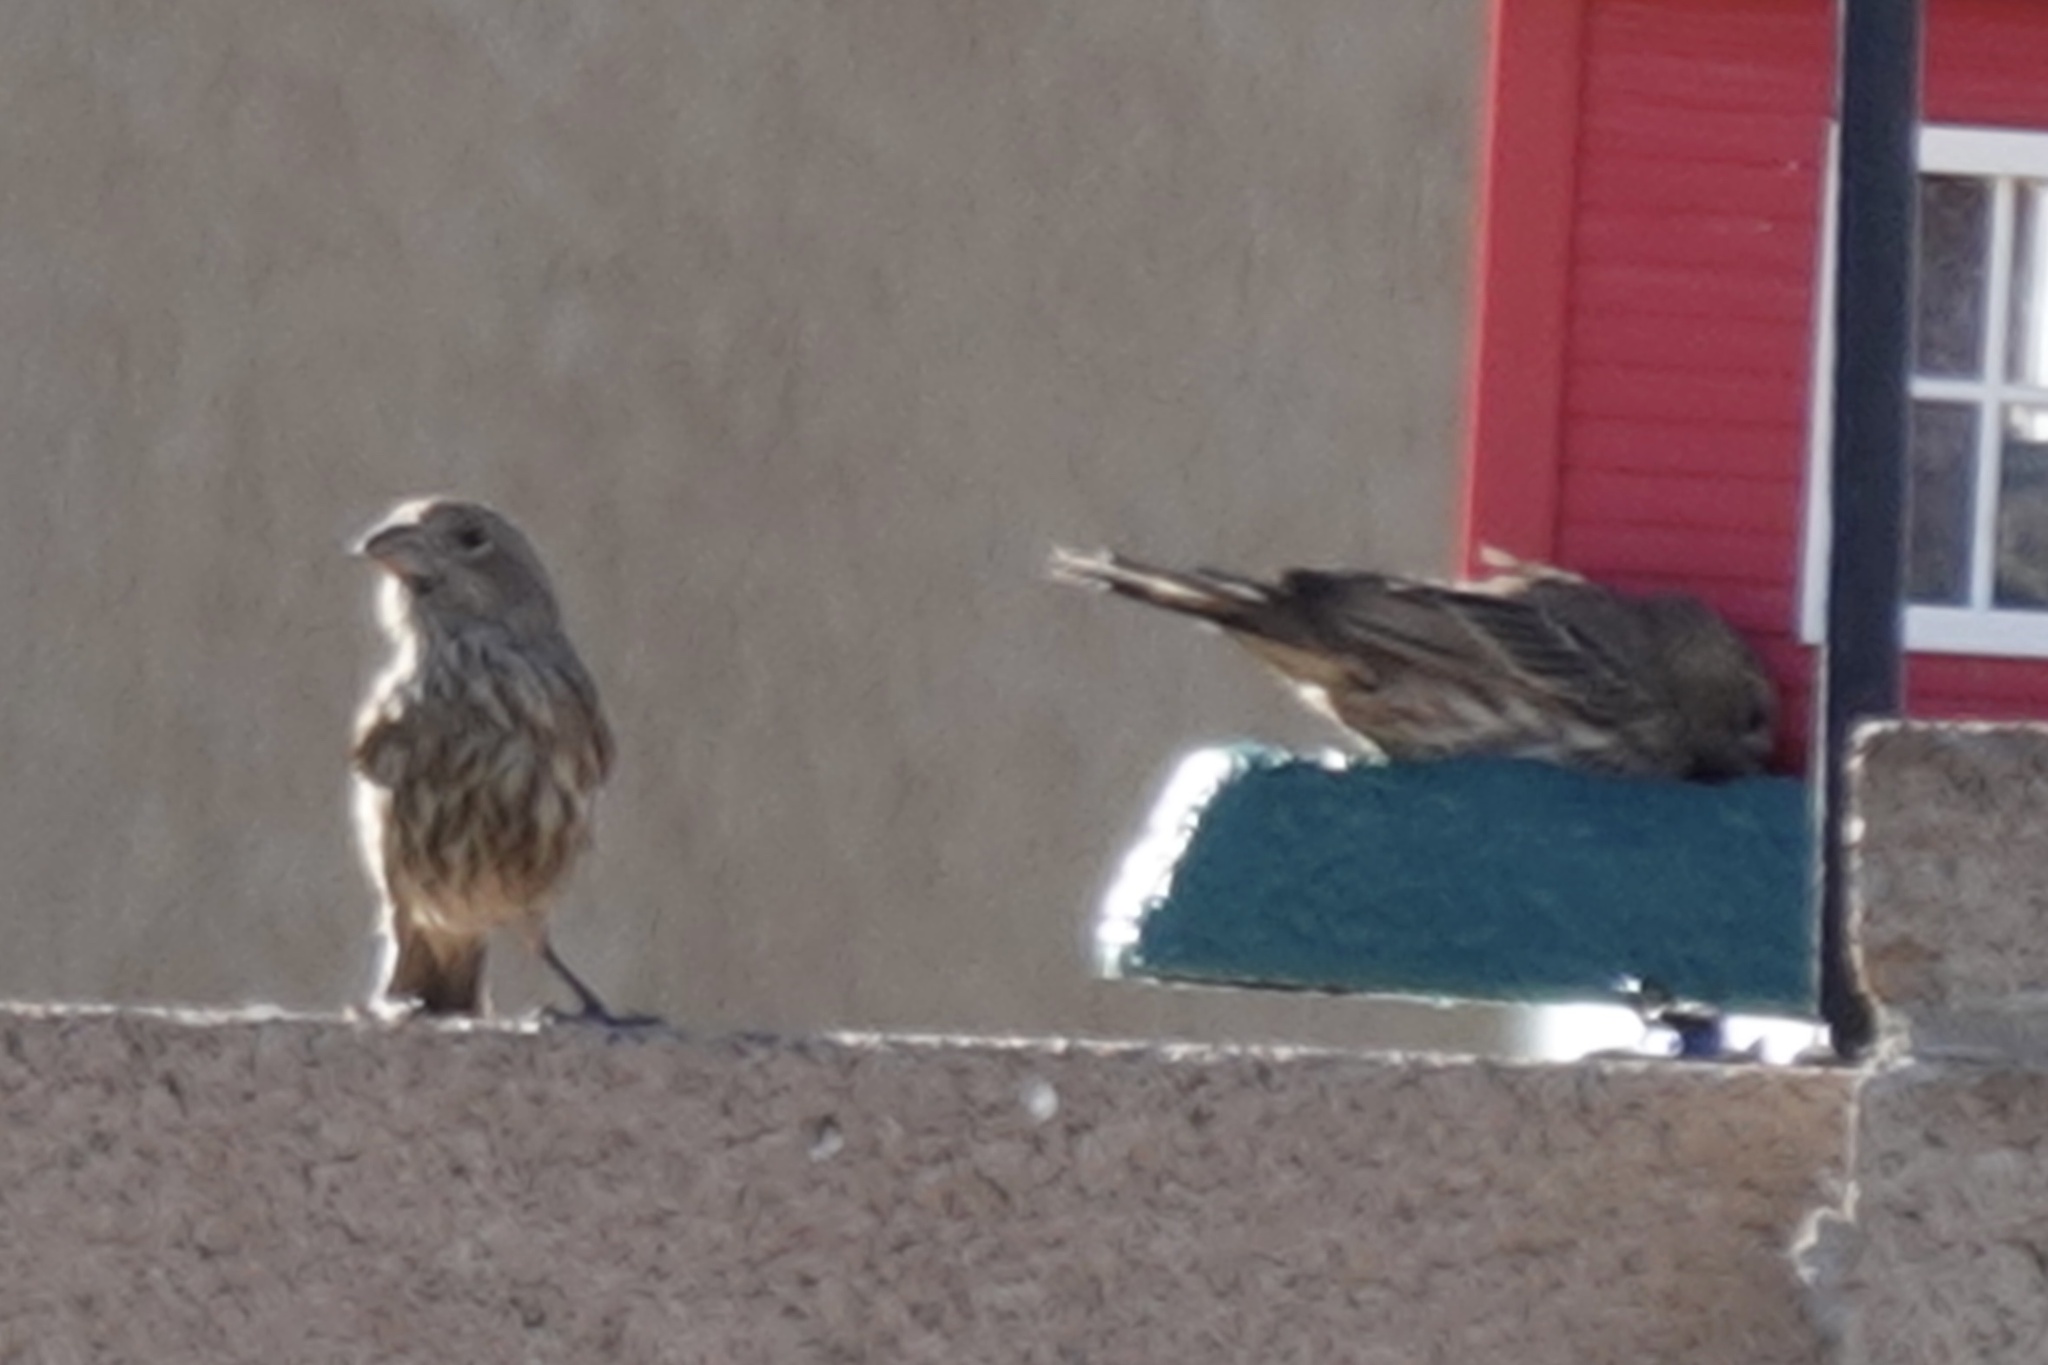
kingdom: Animalia
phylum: Chordata
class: Aves
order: Passeriformes
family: Fringillidae
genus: Haemorhous
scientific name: Haemorhous mexicanus
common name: House finch
